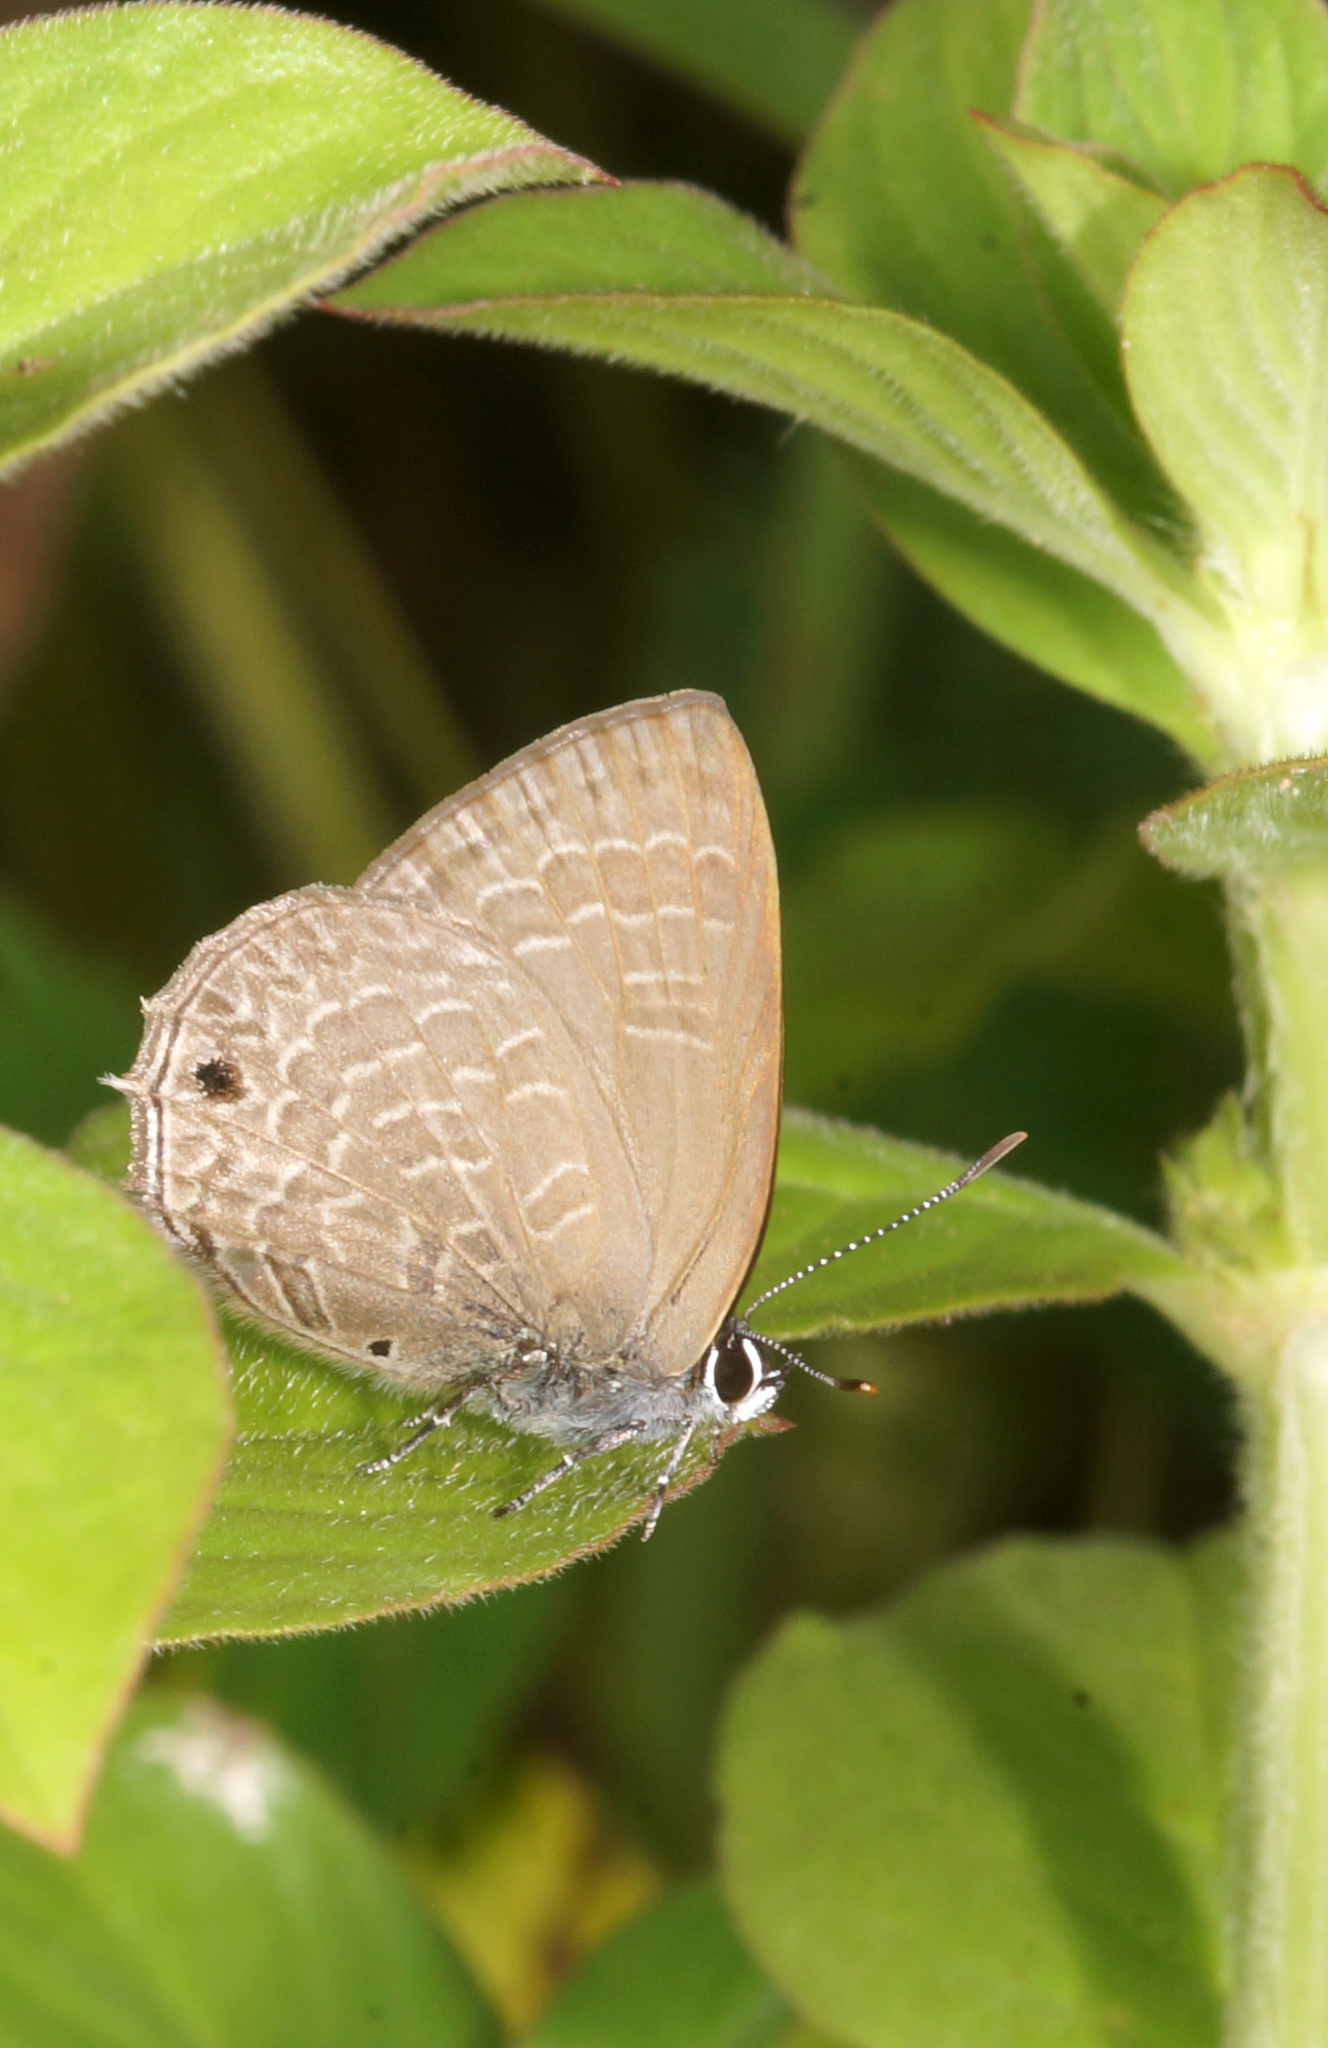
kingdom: Animalia
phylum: Arthropoda
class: Insecta
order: Lepidoptera
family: Lycaenidae
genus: Anthene
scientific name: Anthene emolus
